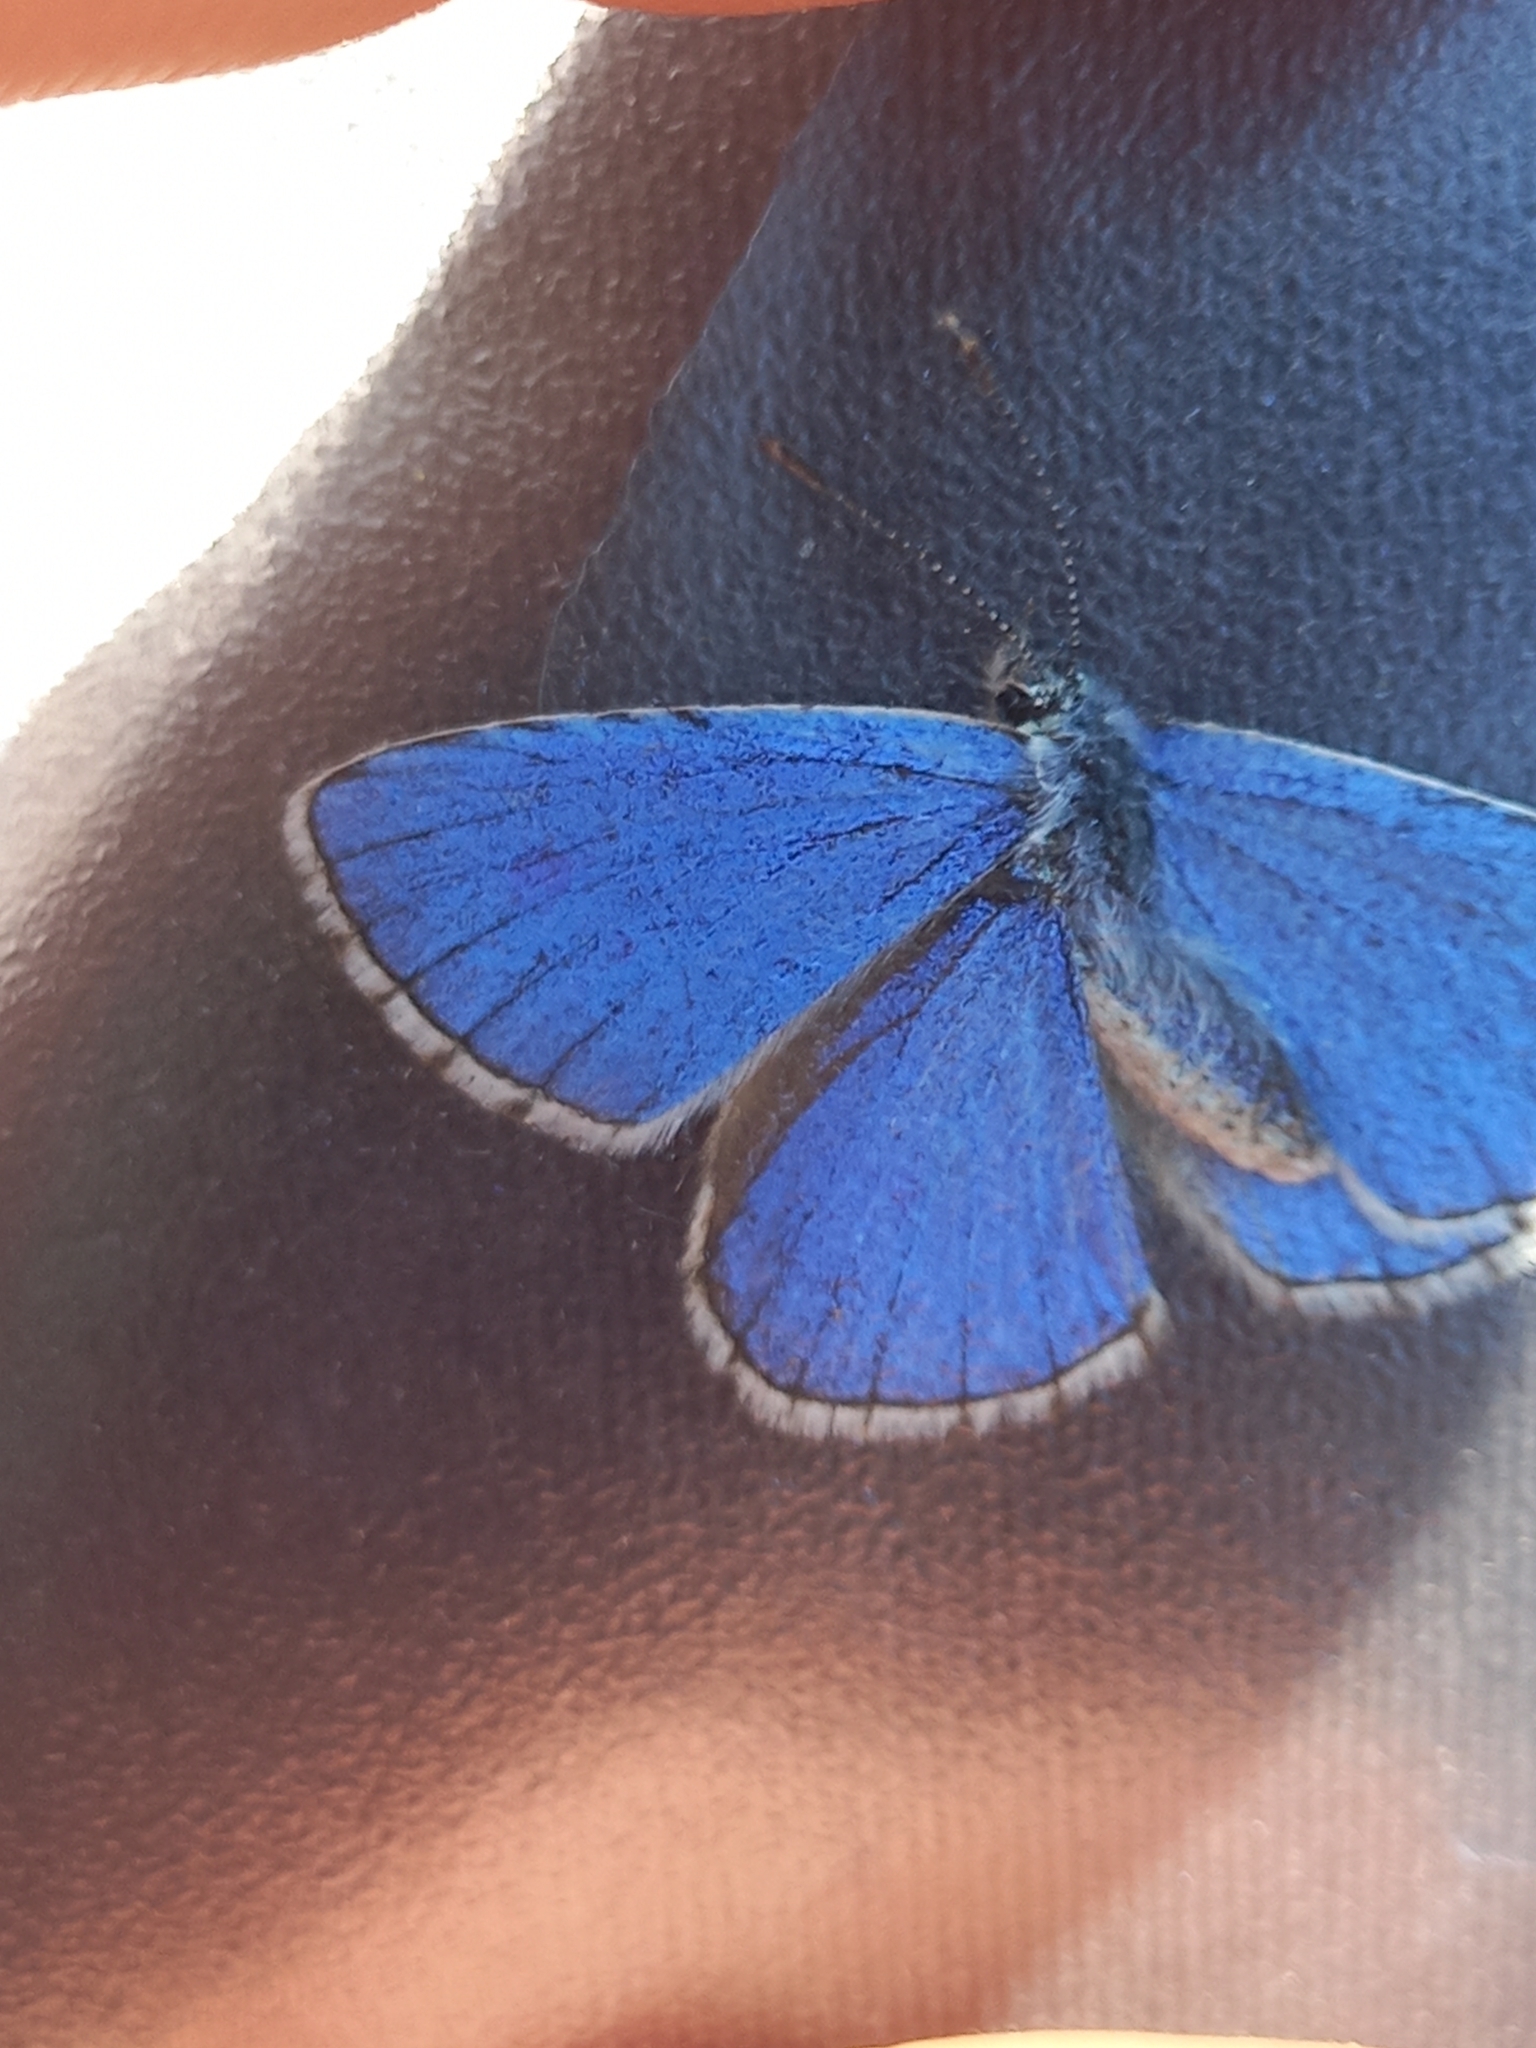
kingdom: Animalia
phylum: Arthropoda
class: Insecta
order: Lepidoptera
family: Lycaenidae
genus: Lysandra
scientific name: Lysandra bellargus
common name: Adonis blue
